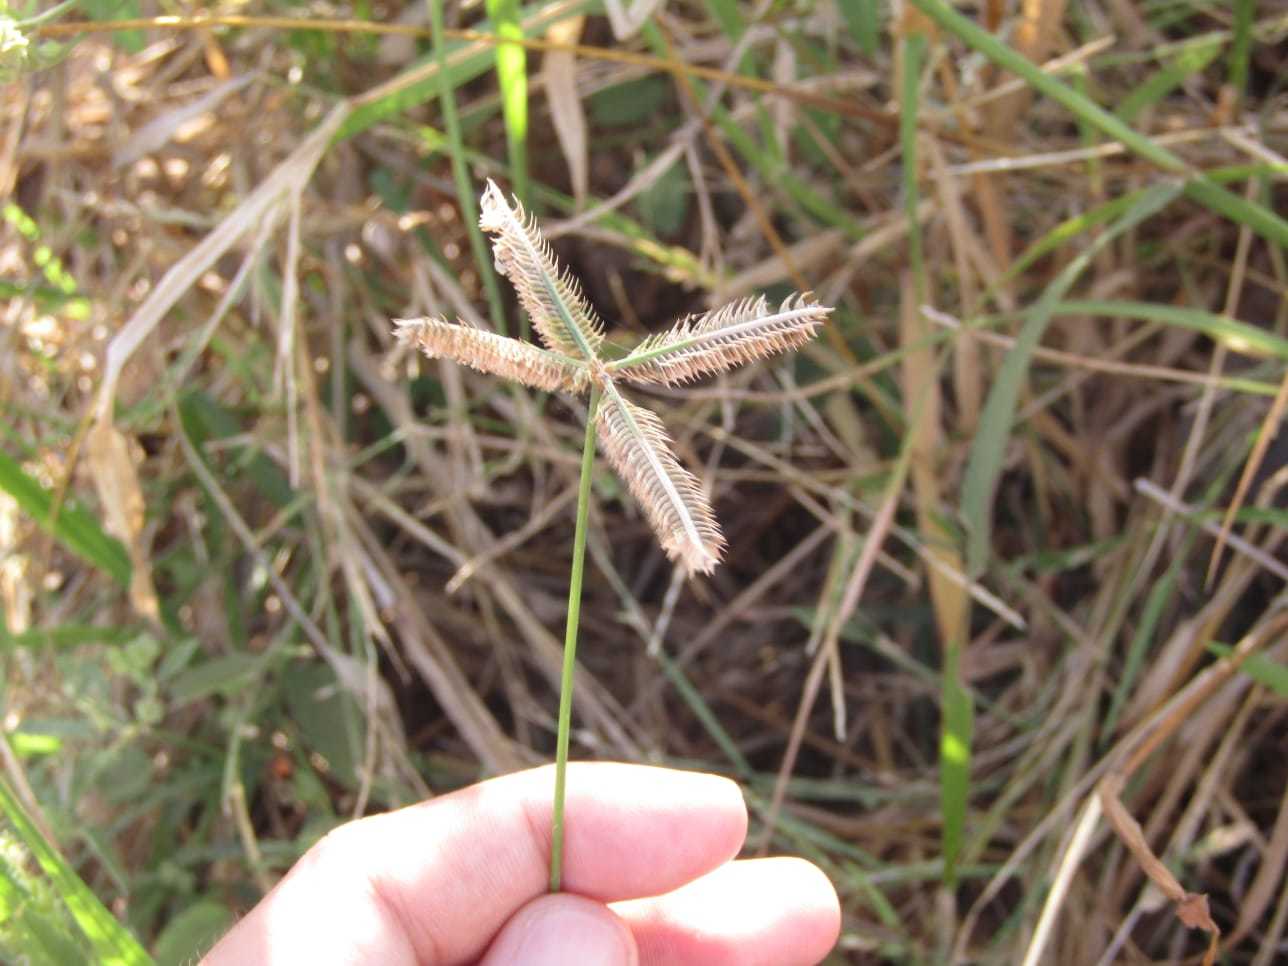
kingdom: Plantae
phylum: Tracheophyta
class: Liliopsida
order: Poales
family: Poaceae
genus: Dactyloctenium
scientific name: Dactyloctenium aegyptium
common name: Egyptian grass
